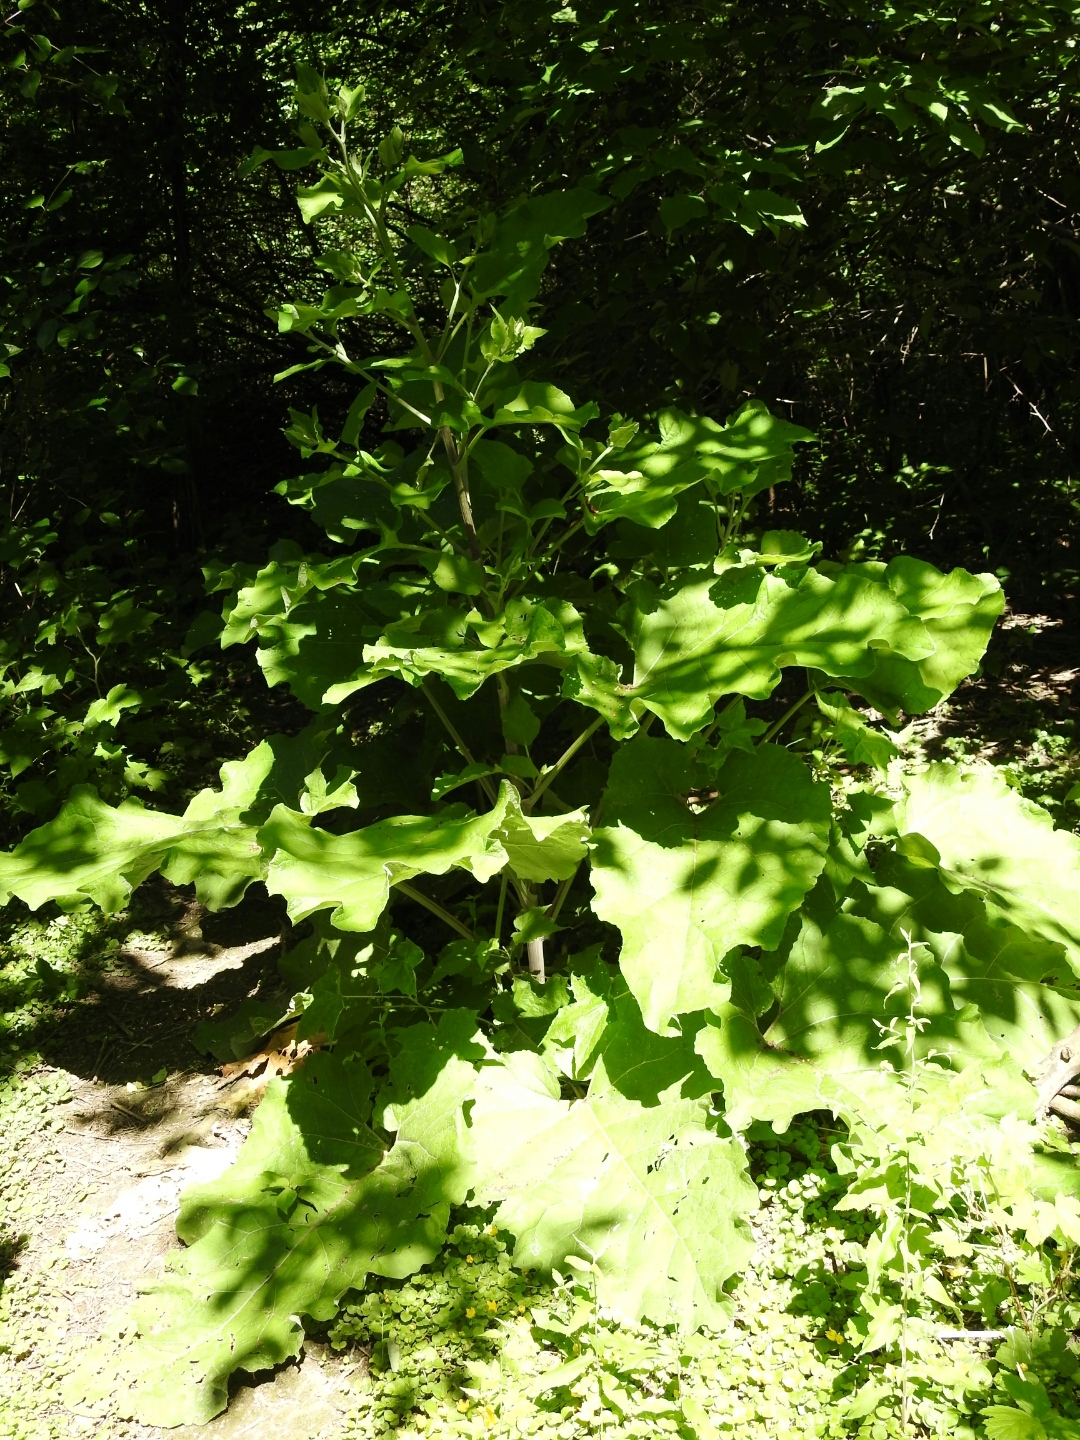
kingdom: Plantae
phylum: Tracheophyta
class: Magnoliopsida
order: Asterales
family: Asteraceae
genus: Arctium
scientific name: Arctium lappa
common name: Greater burdock
